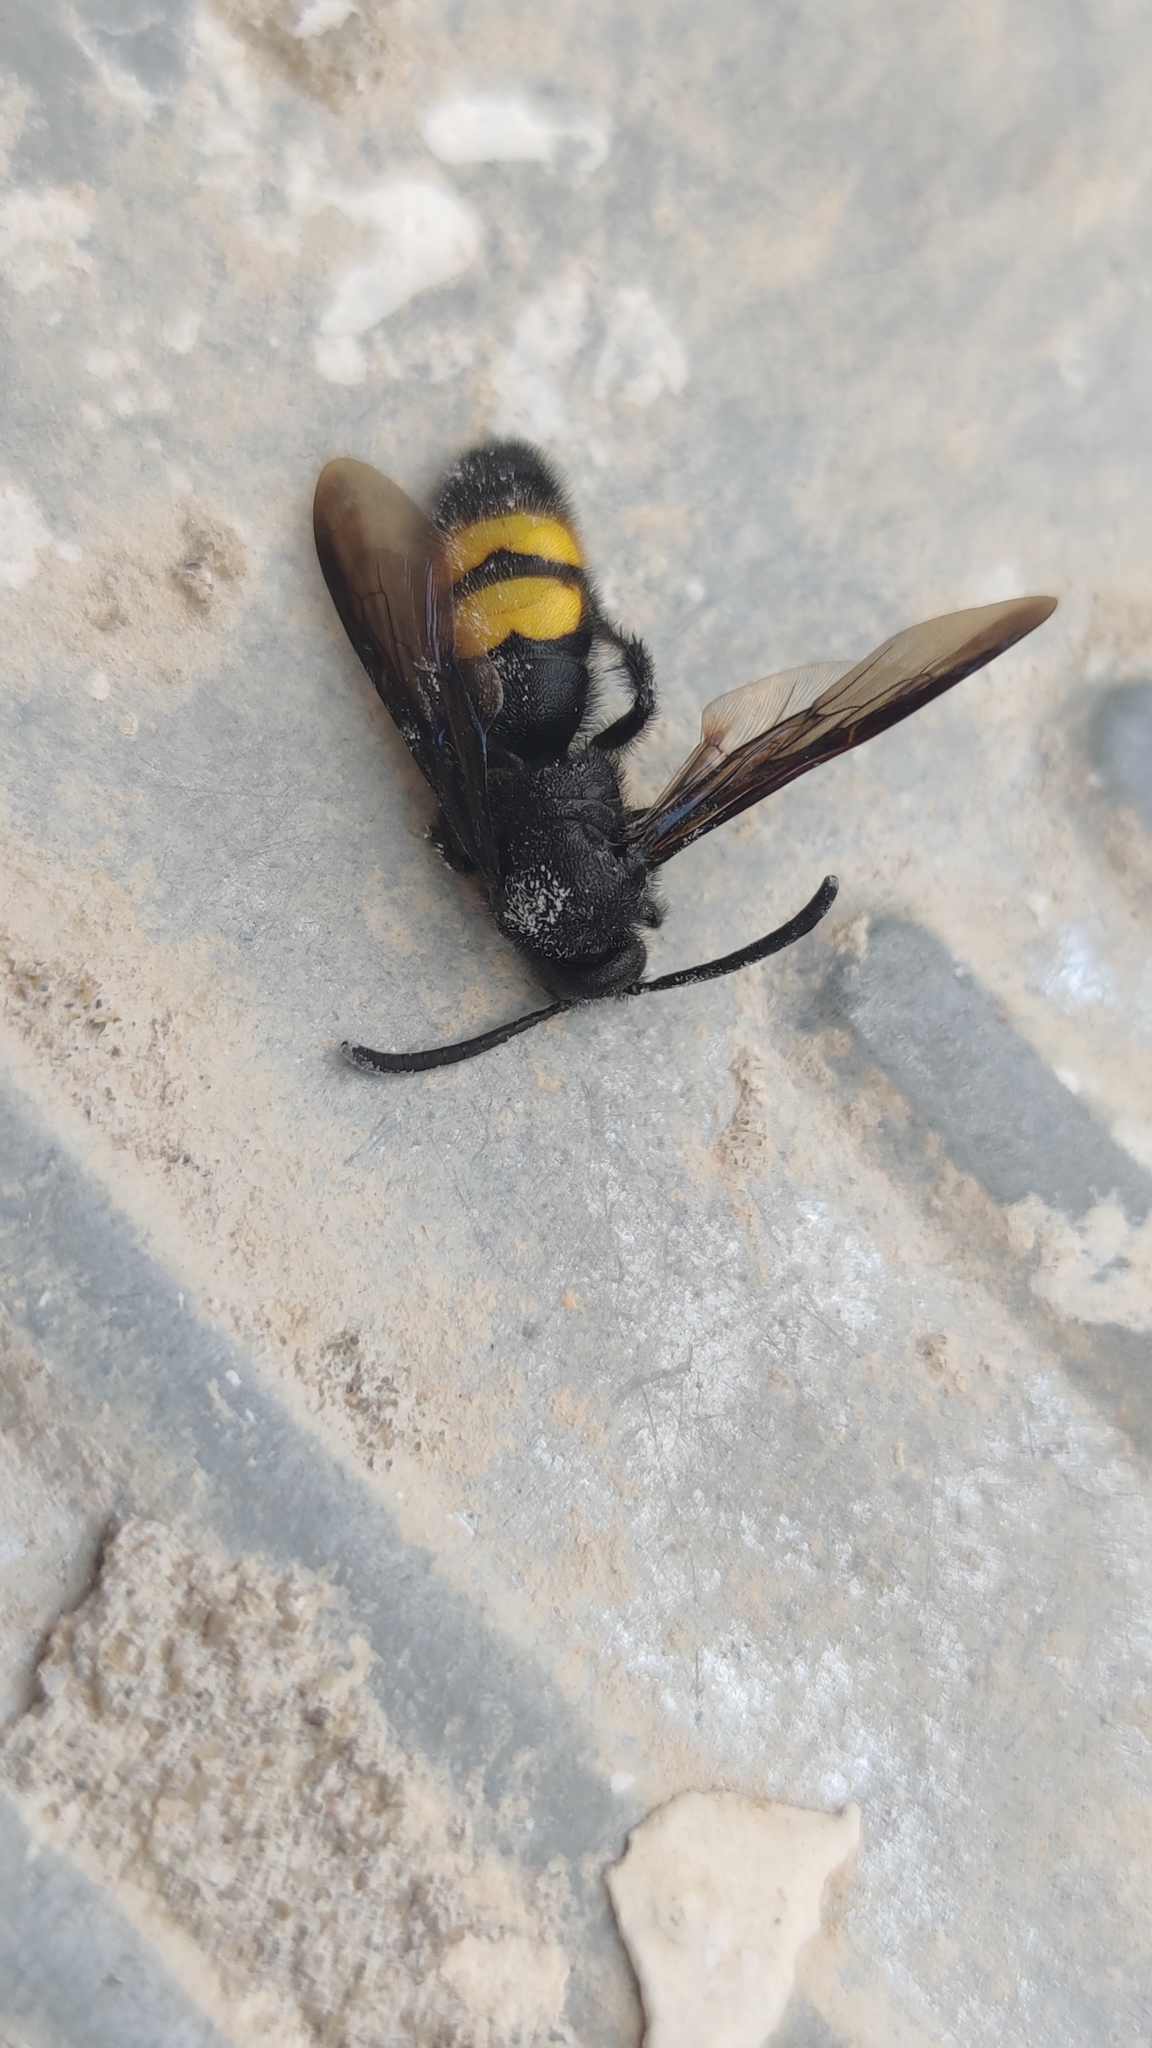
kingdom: Animalia
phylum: Arthropoda
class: Insecta
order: Hymenoptera
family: Scoliidae
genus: Scolia
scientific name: Scolia hirta
